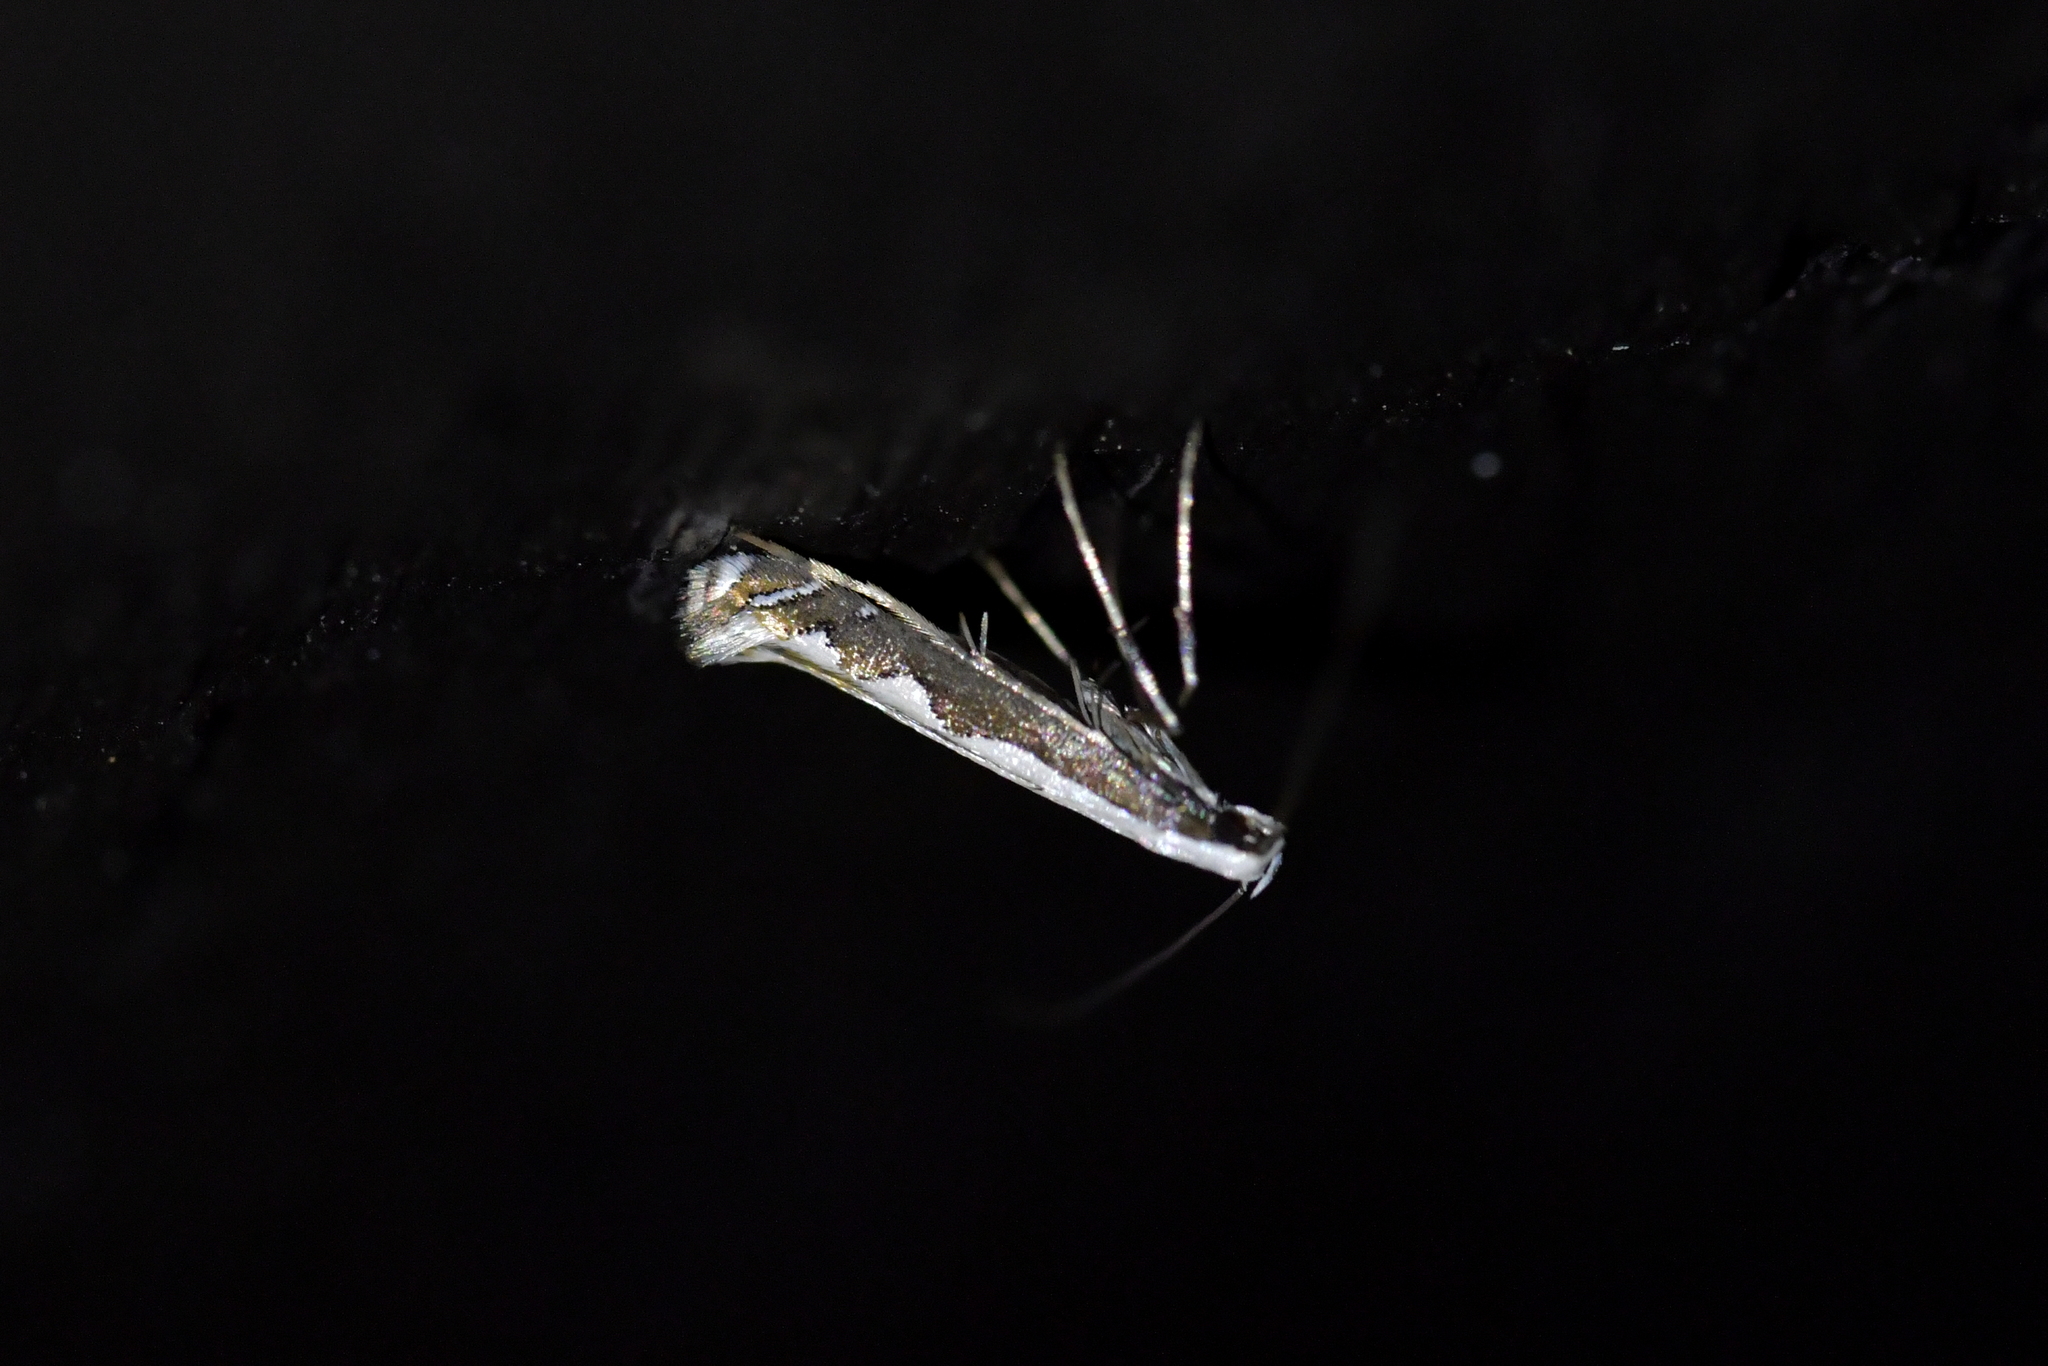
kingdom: Animalia
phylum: Arthropoda
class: Insecta
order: Lepidoptera
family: Gracillariidae
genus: Dialectica
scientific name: Dialectica scalariella
